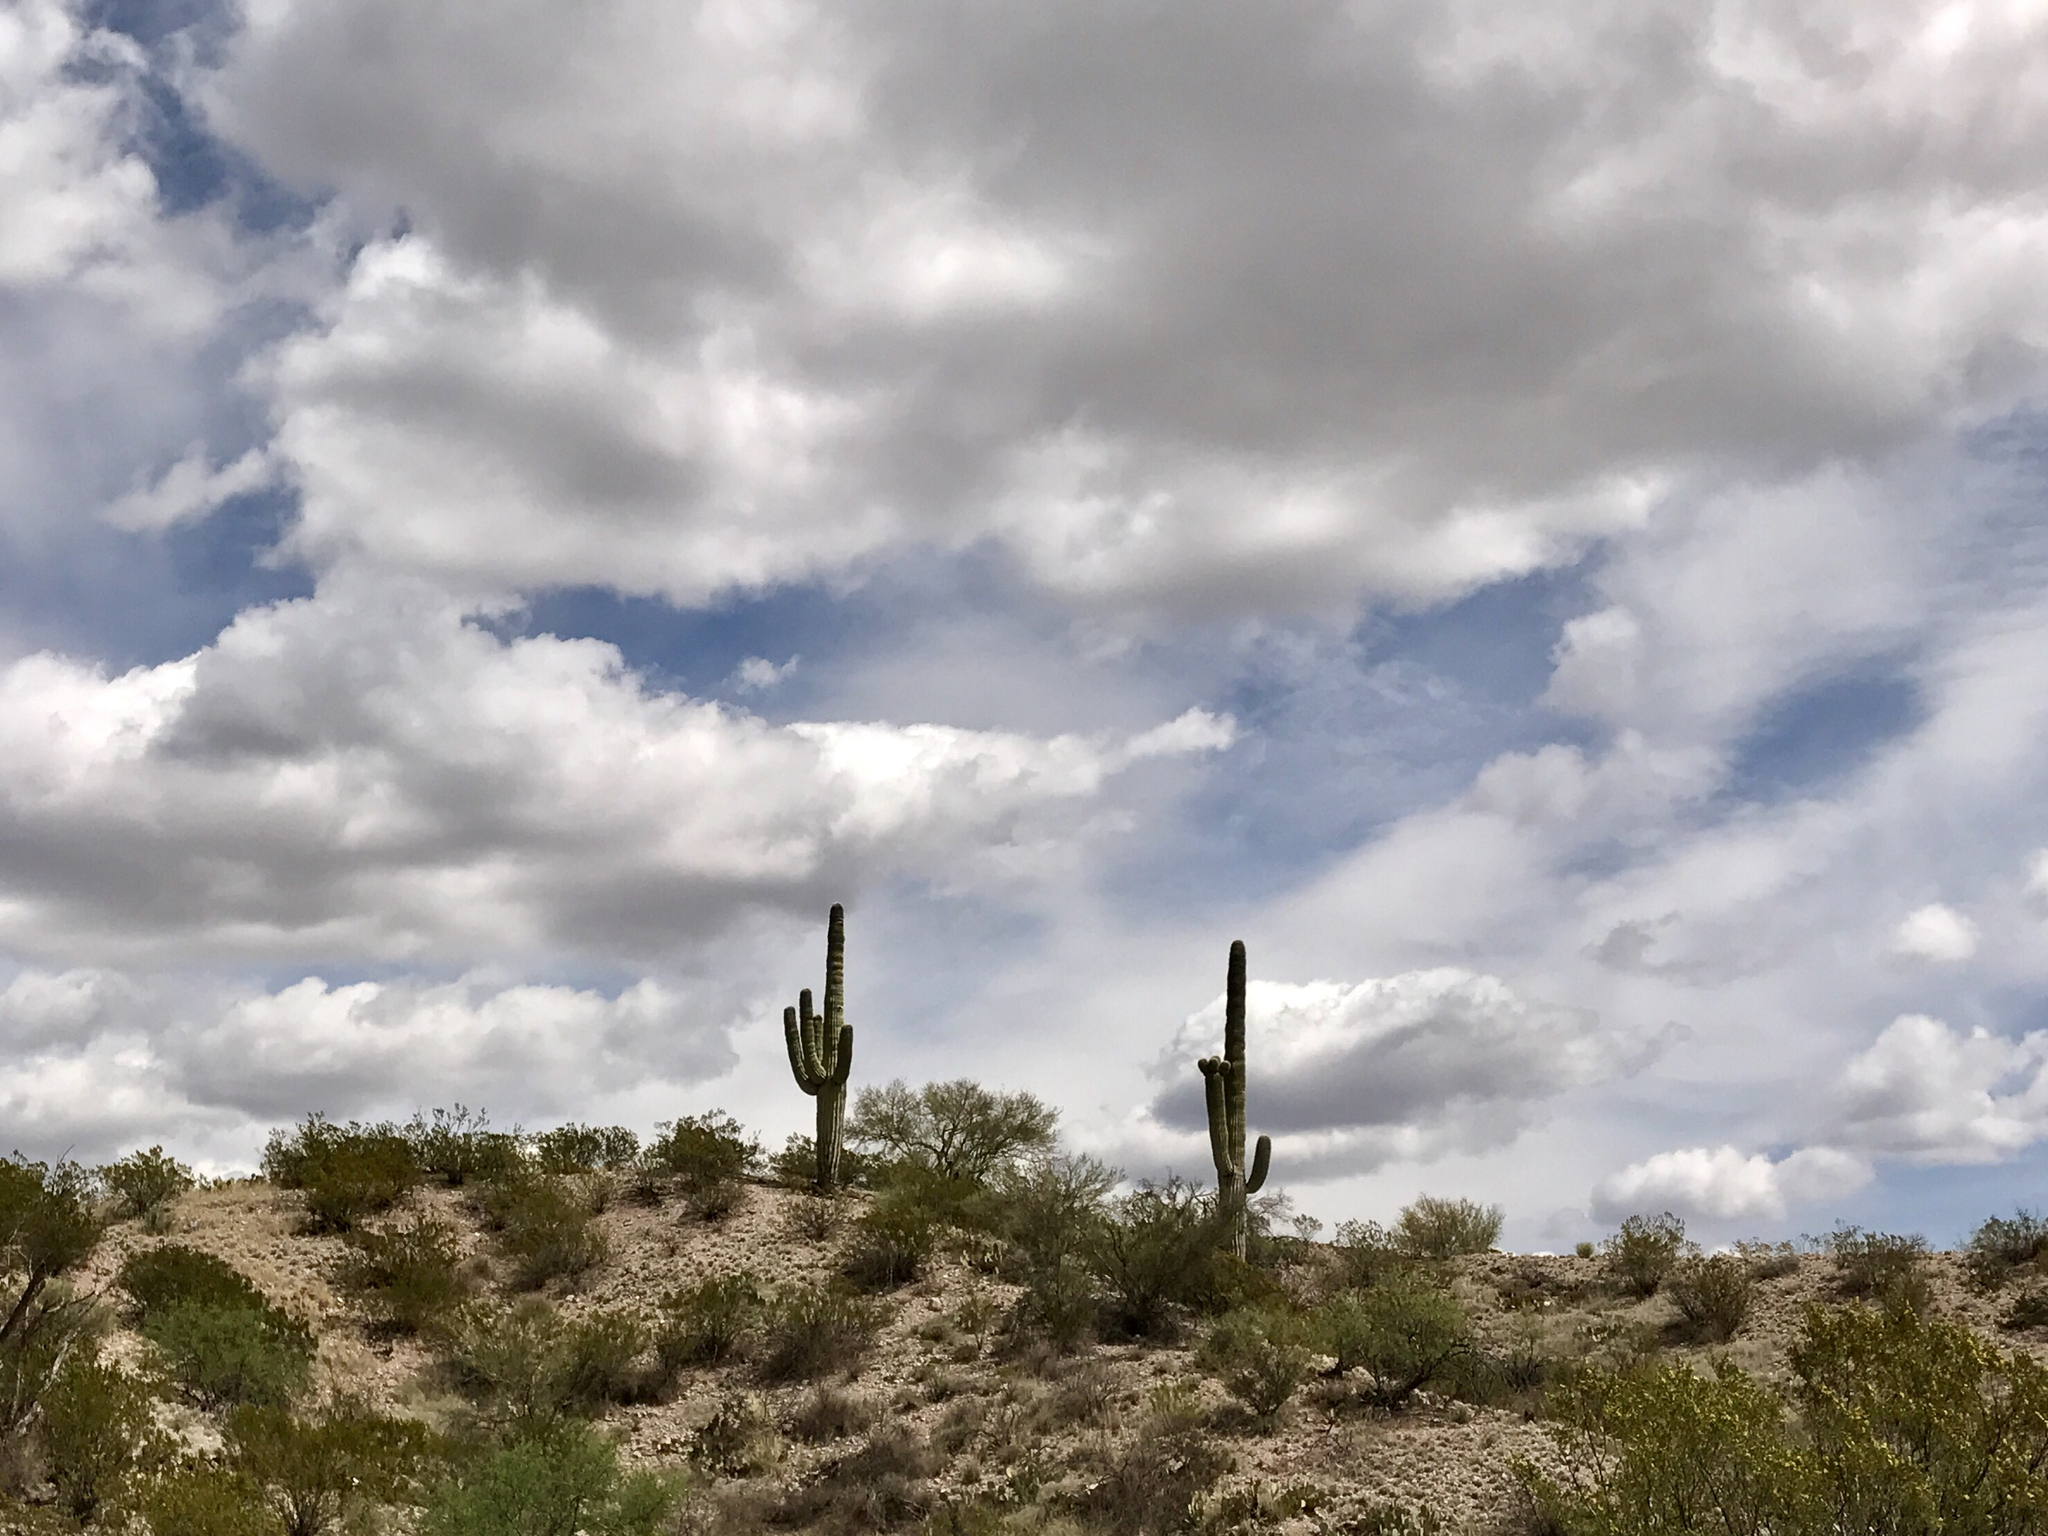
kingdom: Plantae
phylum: Tracheophyta
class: Magnoliopsida
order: Caryophyllales
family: Cactaceae
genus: Carnegiea
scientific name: Carnegiea gigantea
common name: Saguaro
